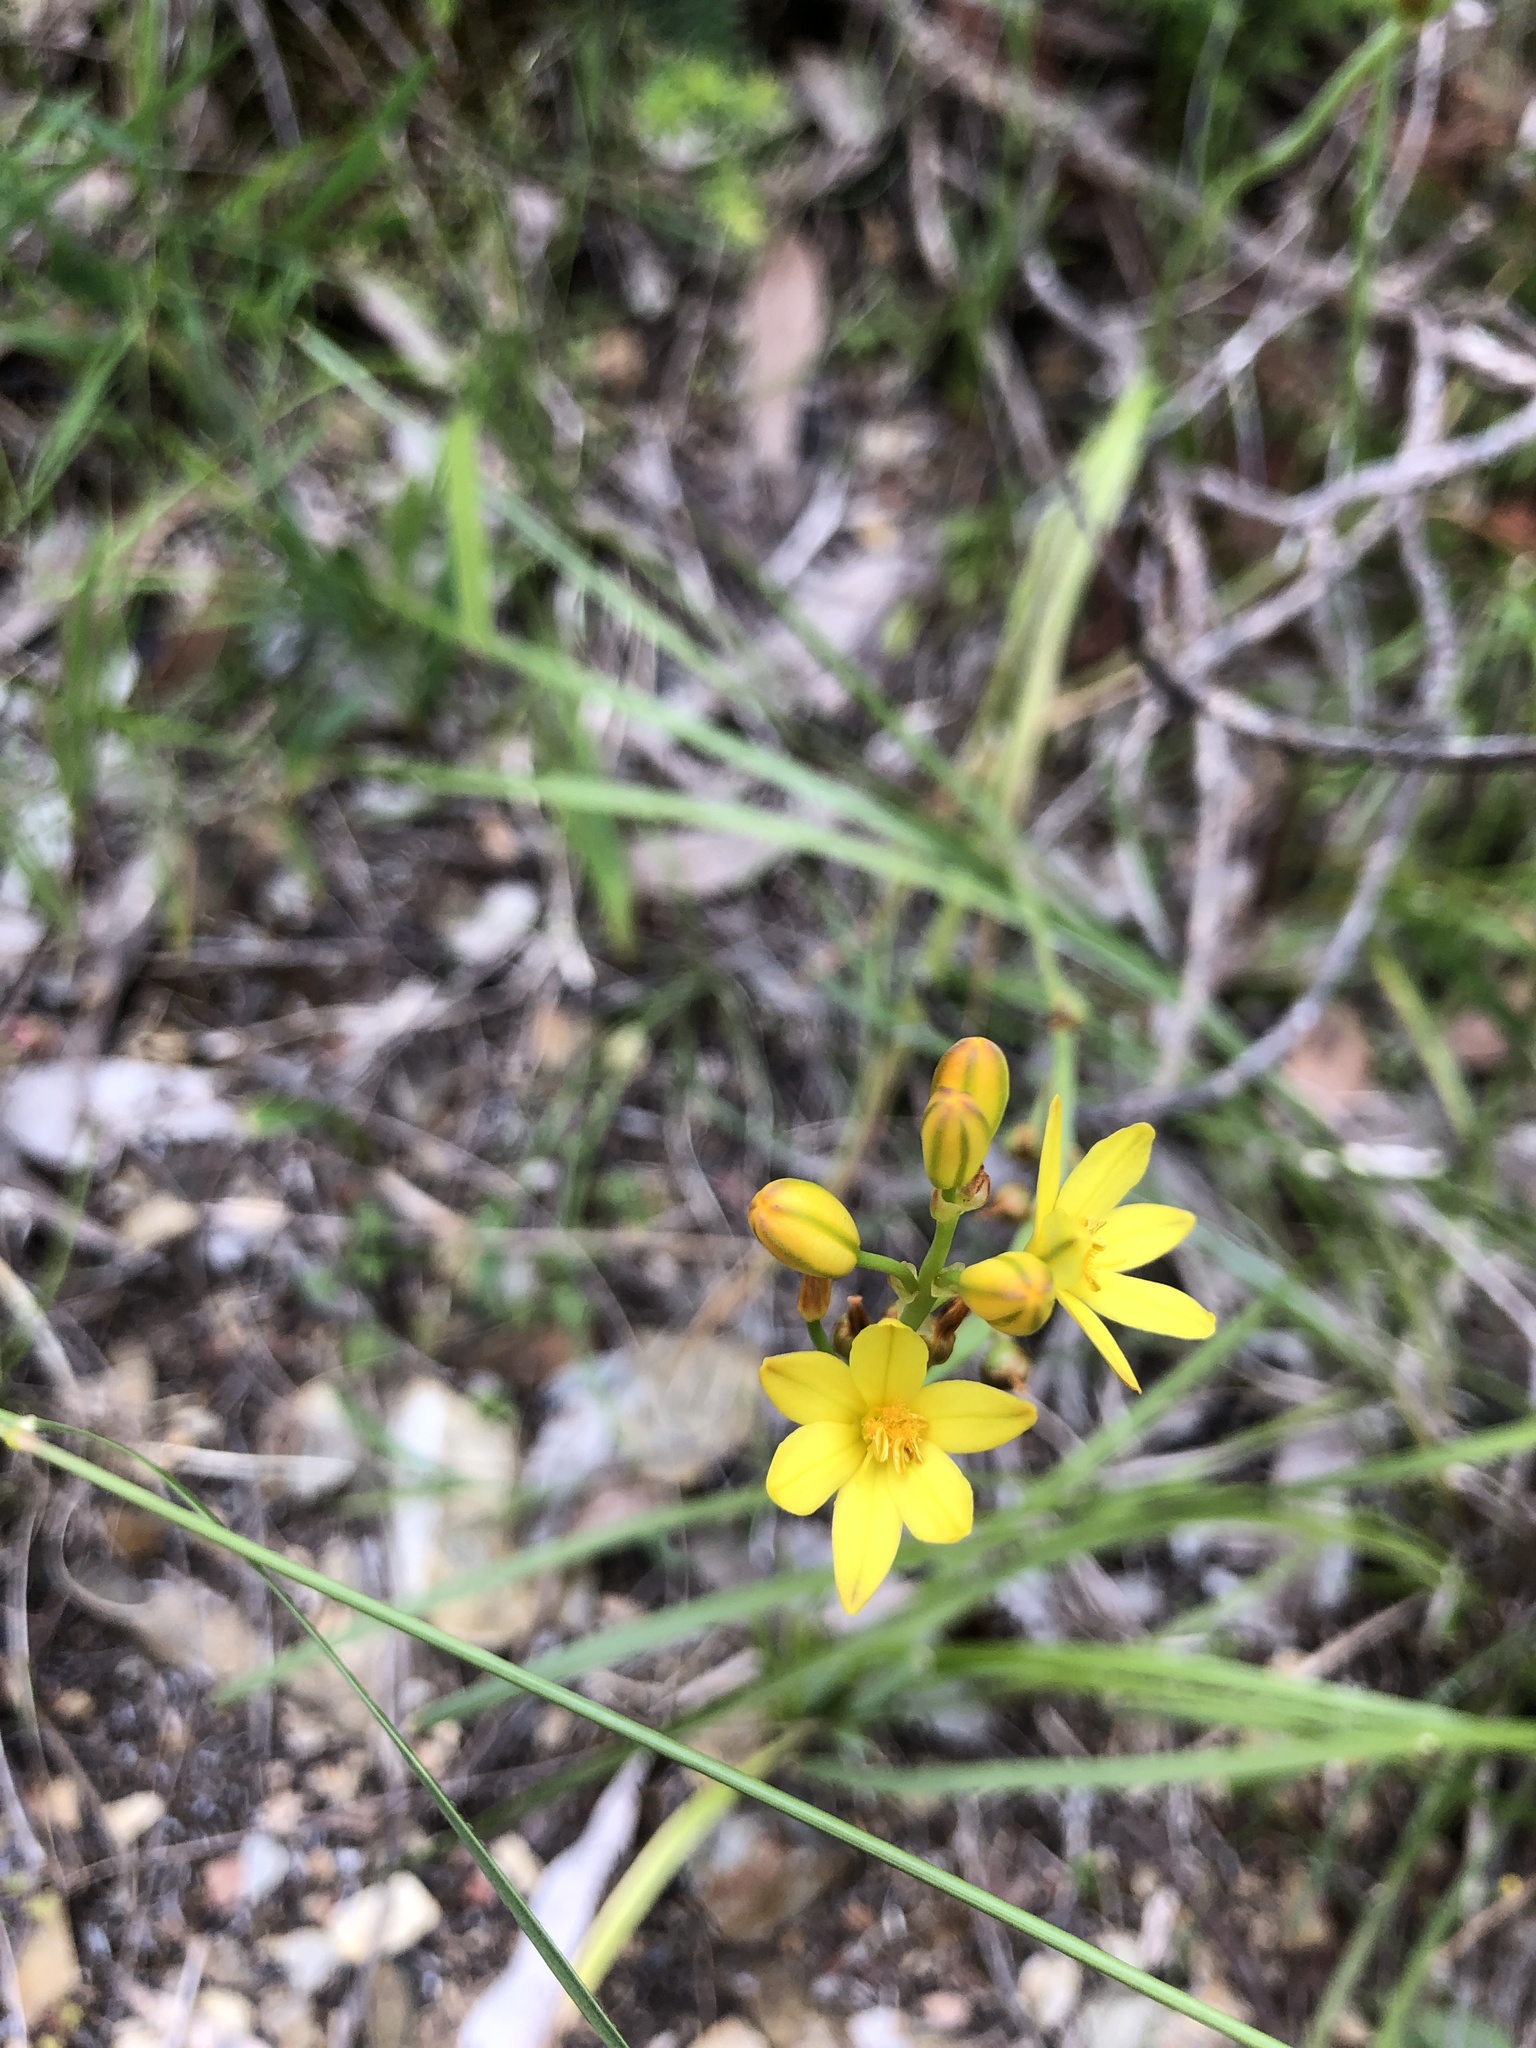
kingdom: Plantae
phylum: Tracheophyta
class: Liliopsida
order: Asparagales
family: Asphodelaceae
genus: Bulbine
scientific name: Bulbine bulbosa
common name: Golden-lily
